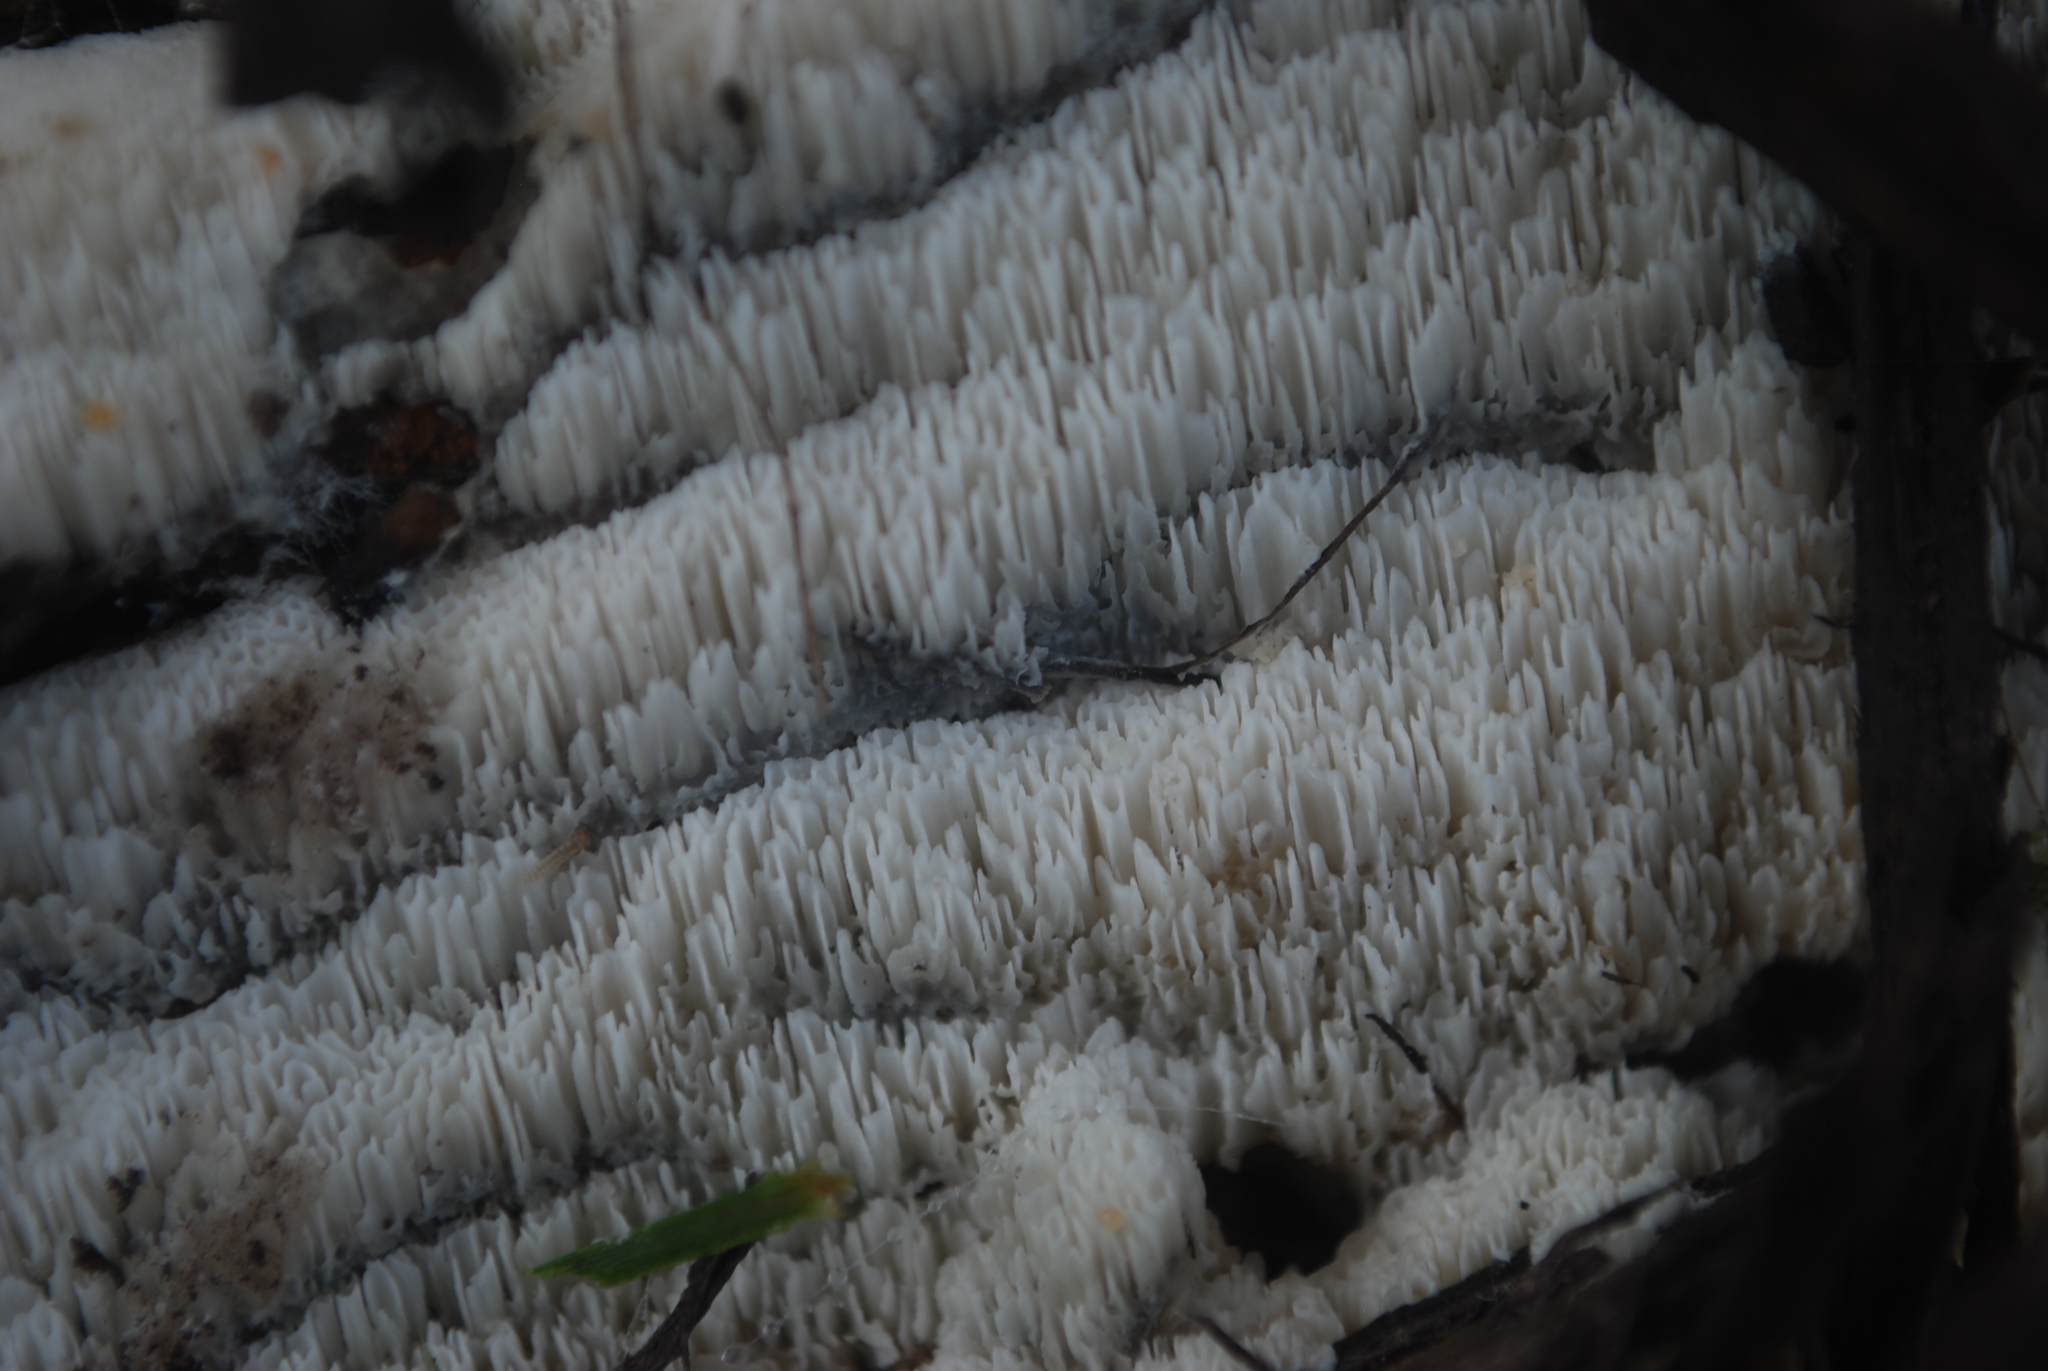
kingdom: Fungi
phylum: Basidiomycota
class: Agaricomycetes
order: Polyporales
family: Irpicaceae
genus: Irpex
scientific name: Irpex lacteus
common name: Milk-white toothed polypore
